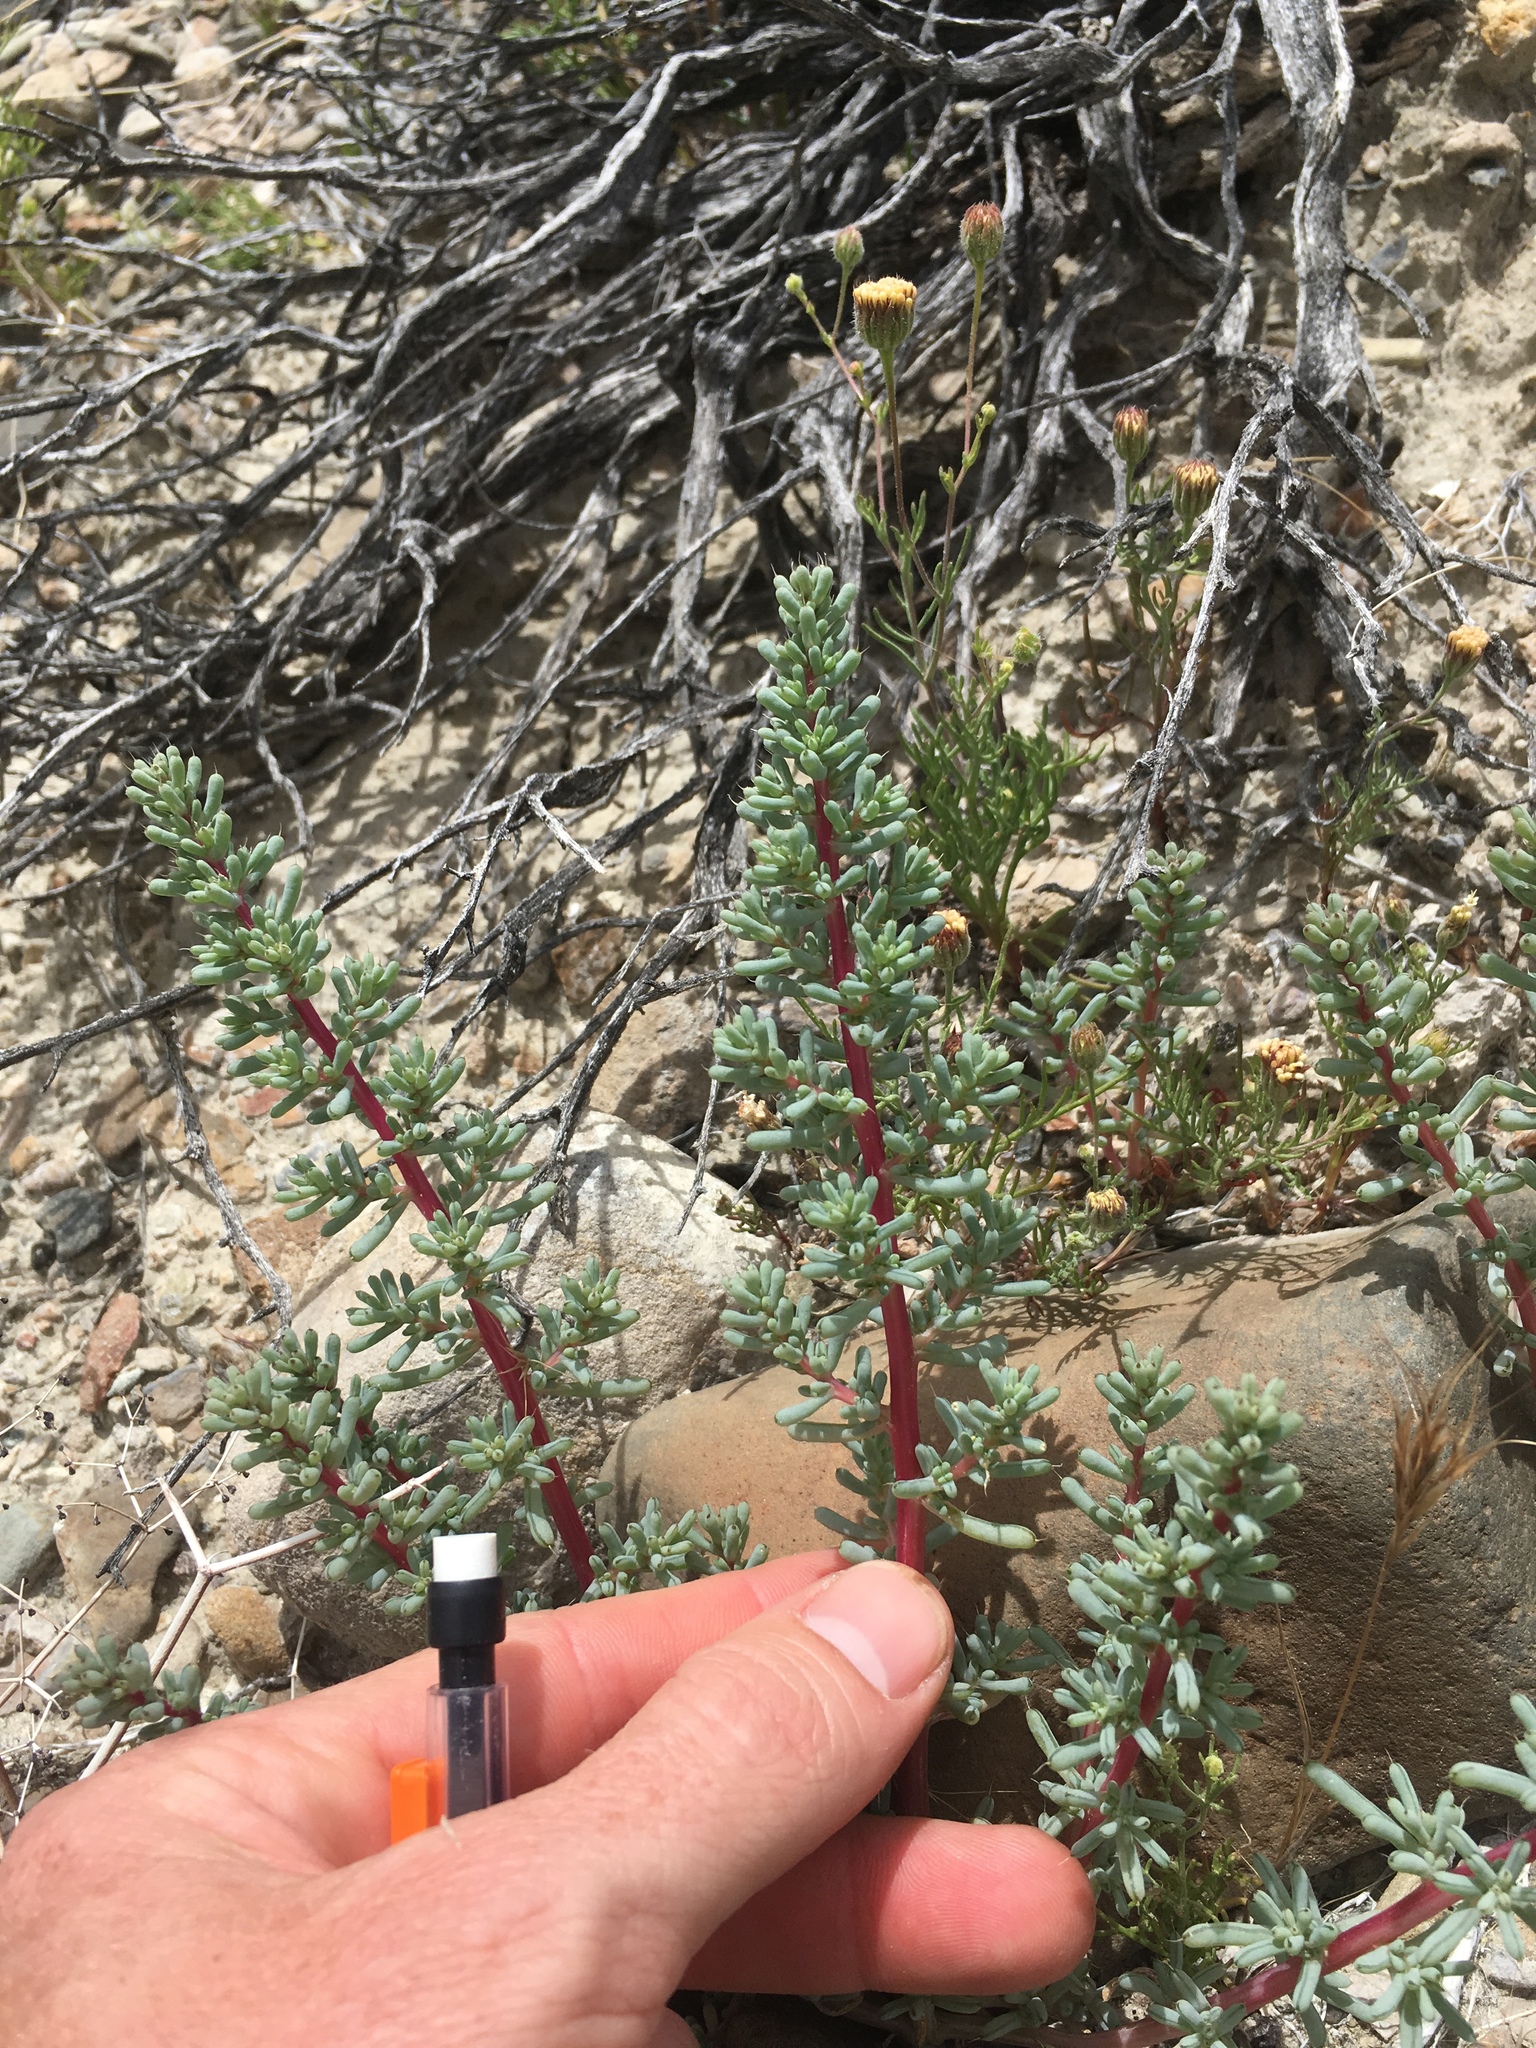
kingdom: Plantae
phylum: Tracheophyta
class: Magnoliopsida
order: Caryophyllales
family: Amaranthaceae
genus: Halogeton
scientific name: Halogeton glomeratus
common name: Saltlover
